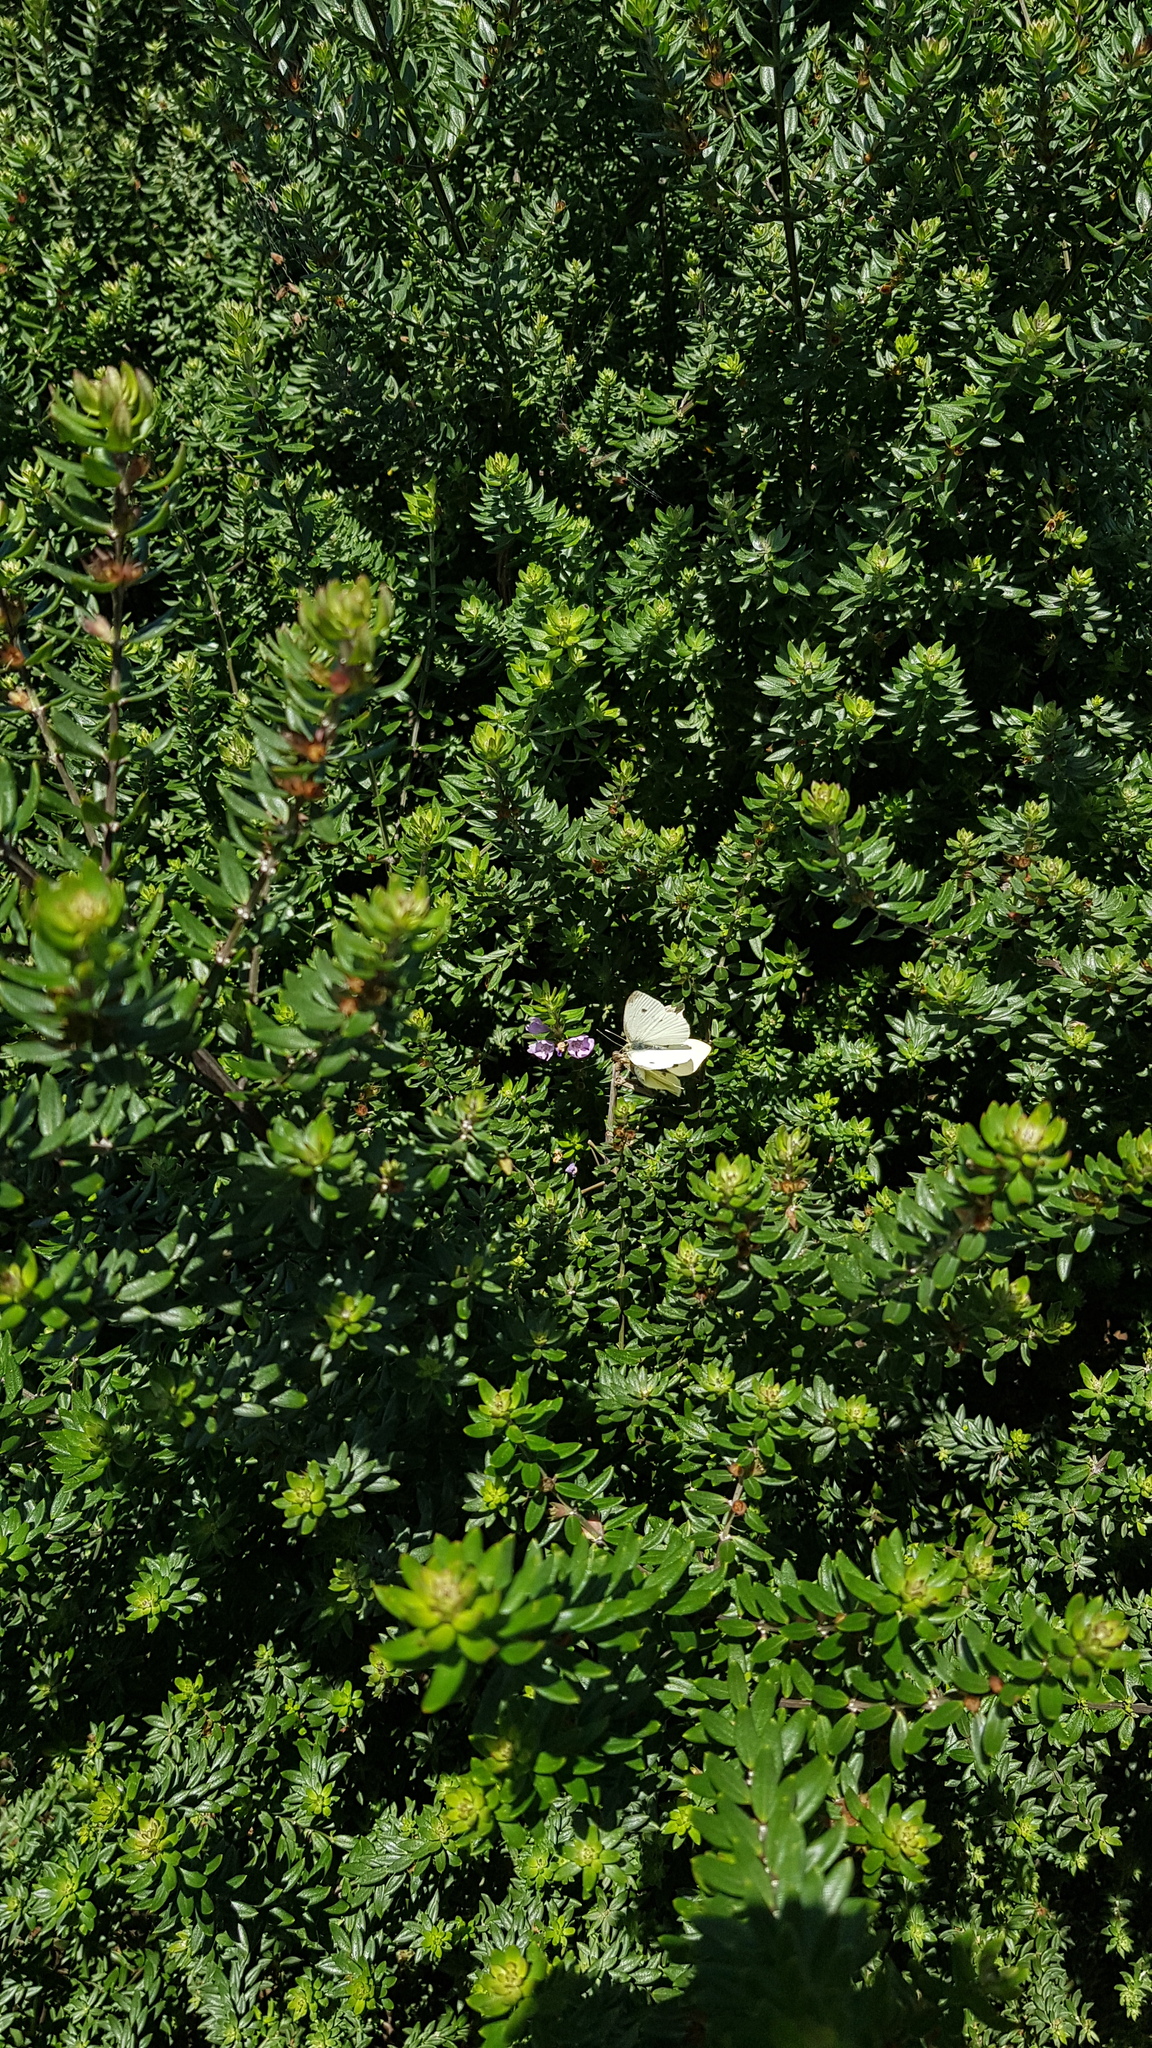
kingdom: Animalia
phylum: Arthropoda
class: Insecta
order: Lepidoptera
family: Pieridae
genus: Pieris
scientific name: Pieris rapae
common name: Small white
